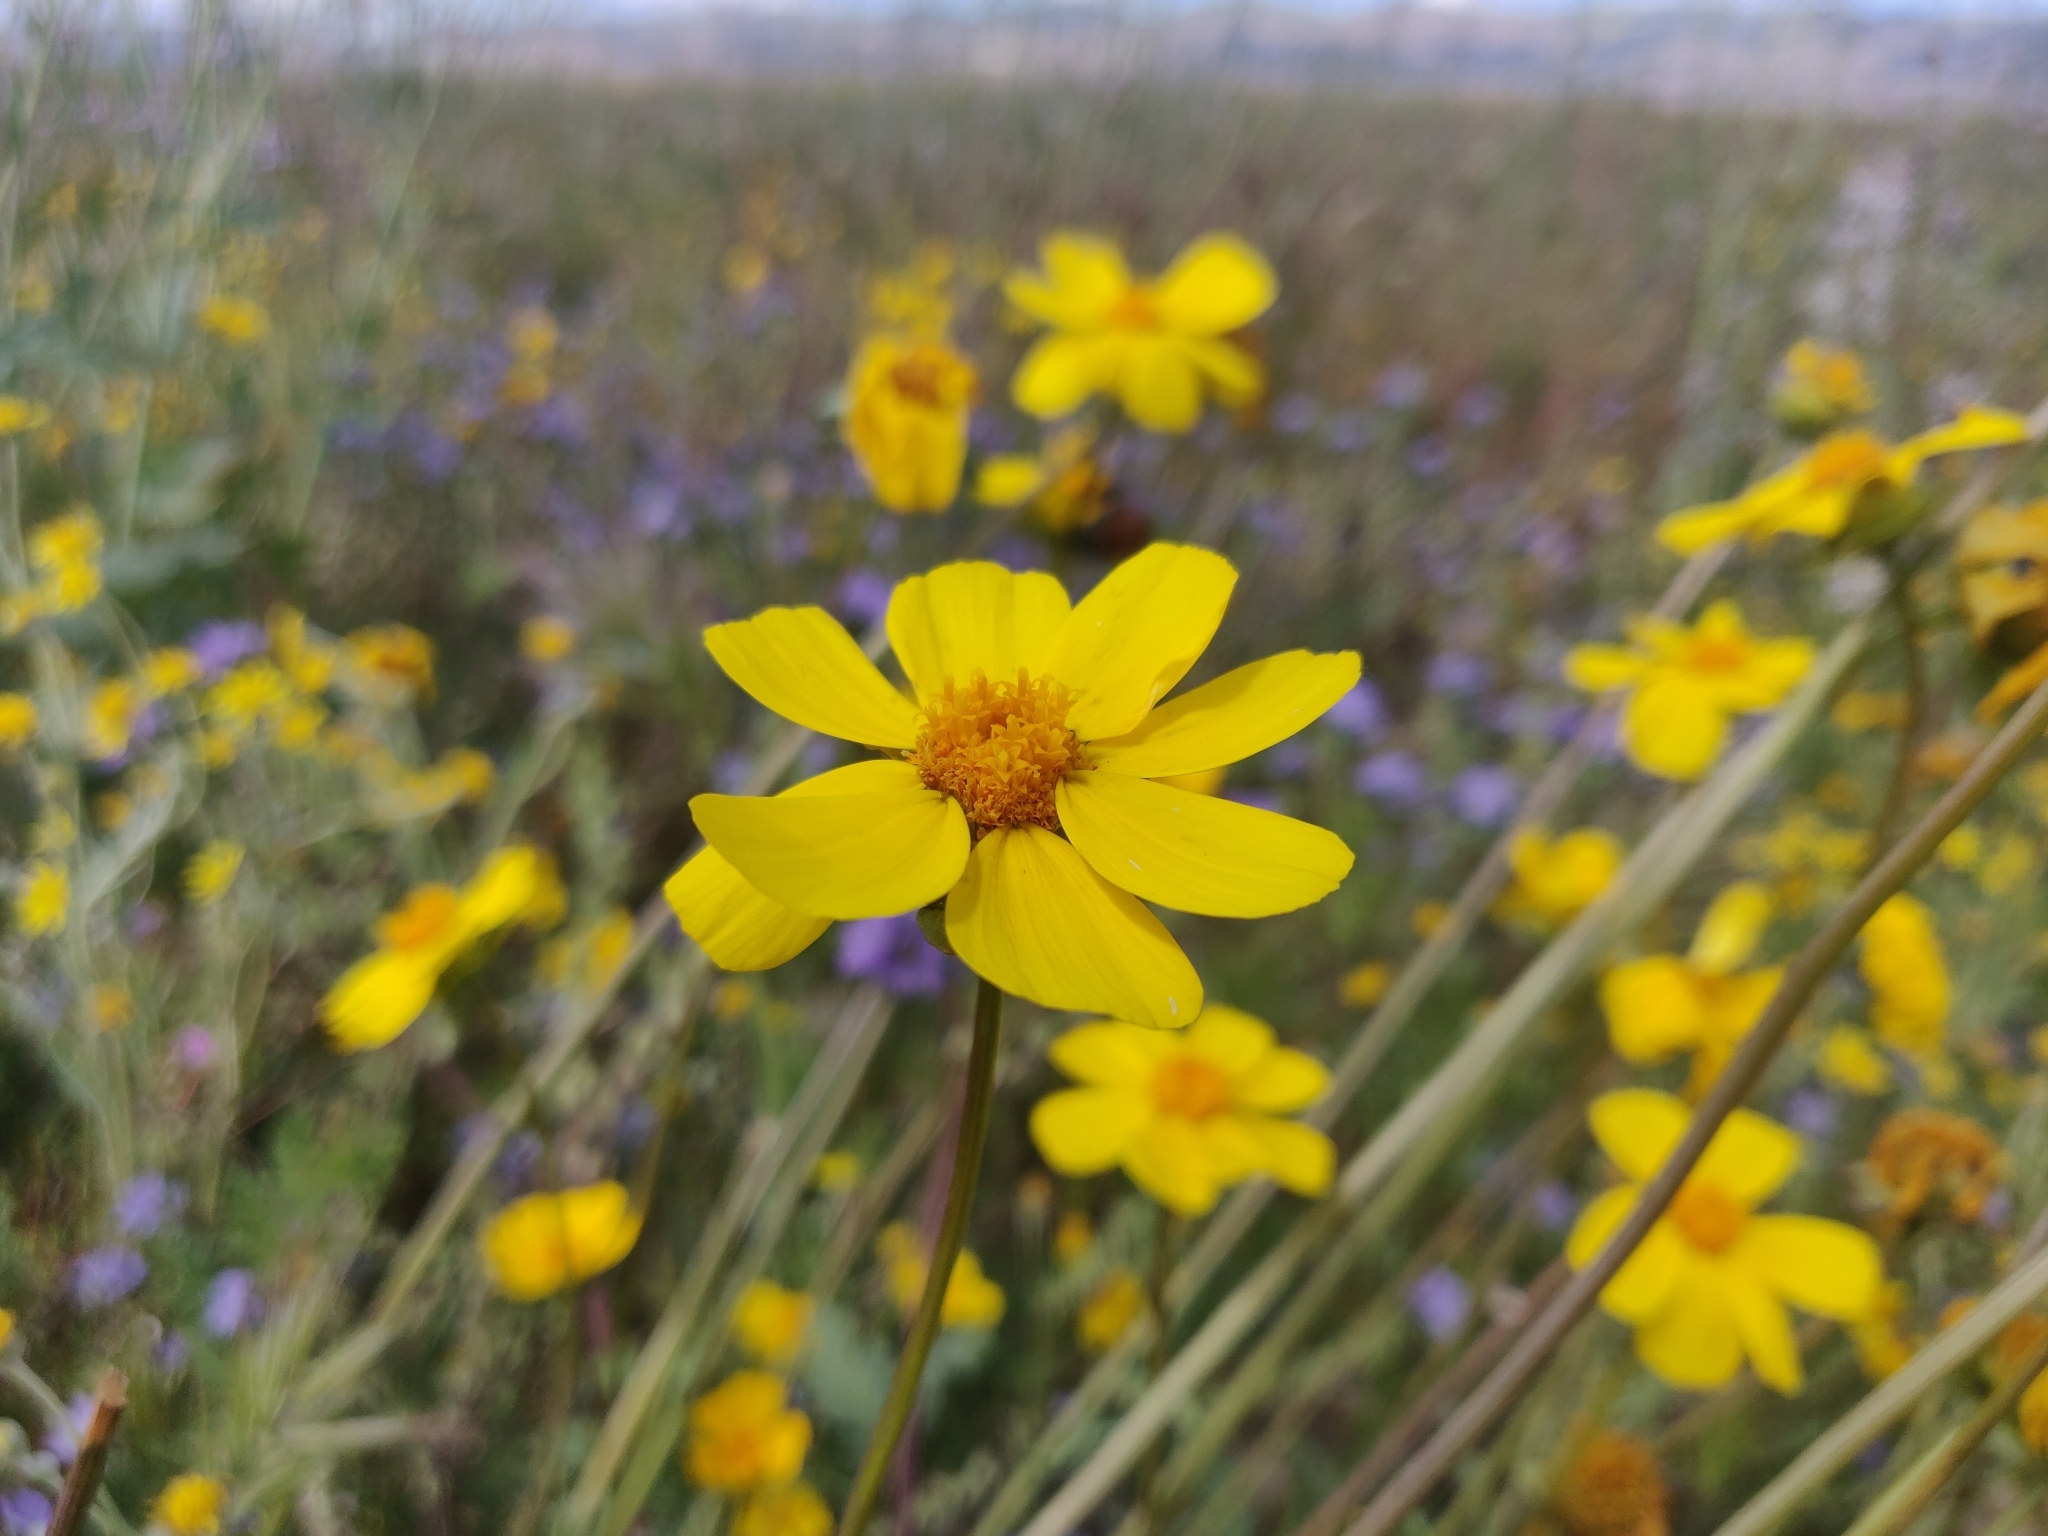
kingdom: Plantae
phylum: Tracheophyta
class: Magnoliopsida
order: Asterales
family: Asteraceae
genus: Monolopia
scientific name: Monolopia lanceolata
